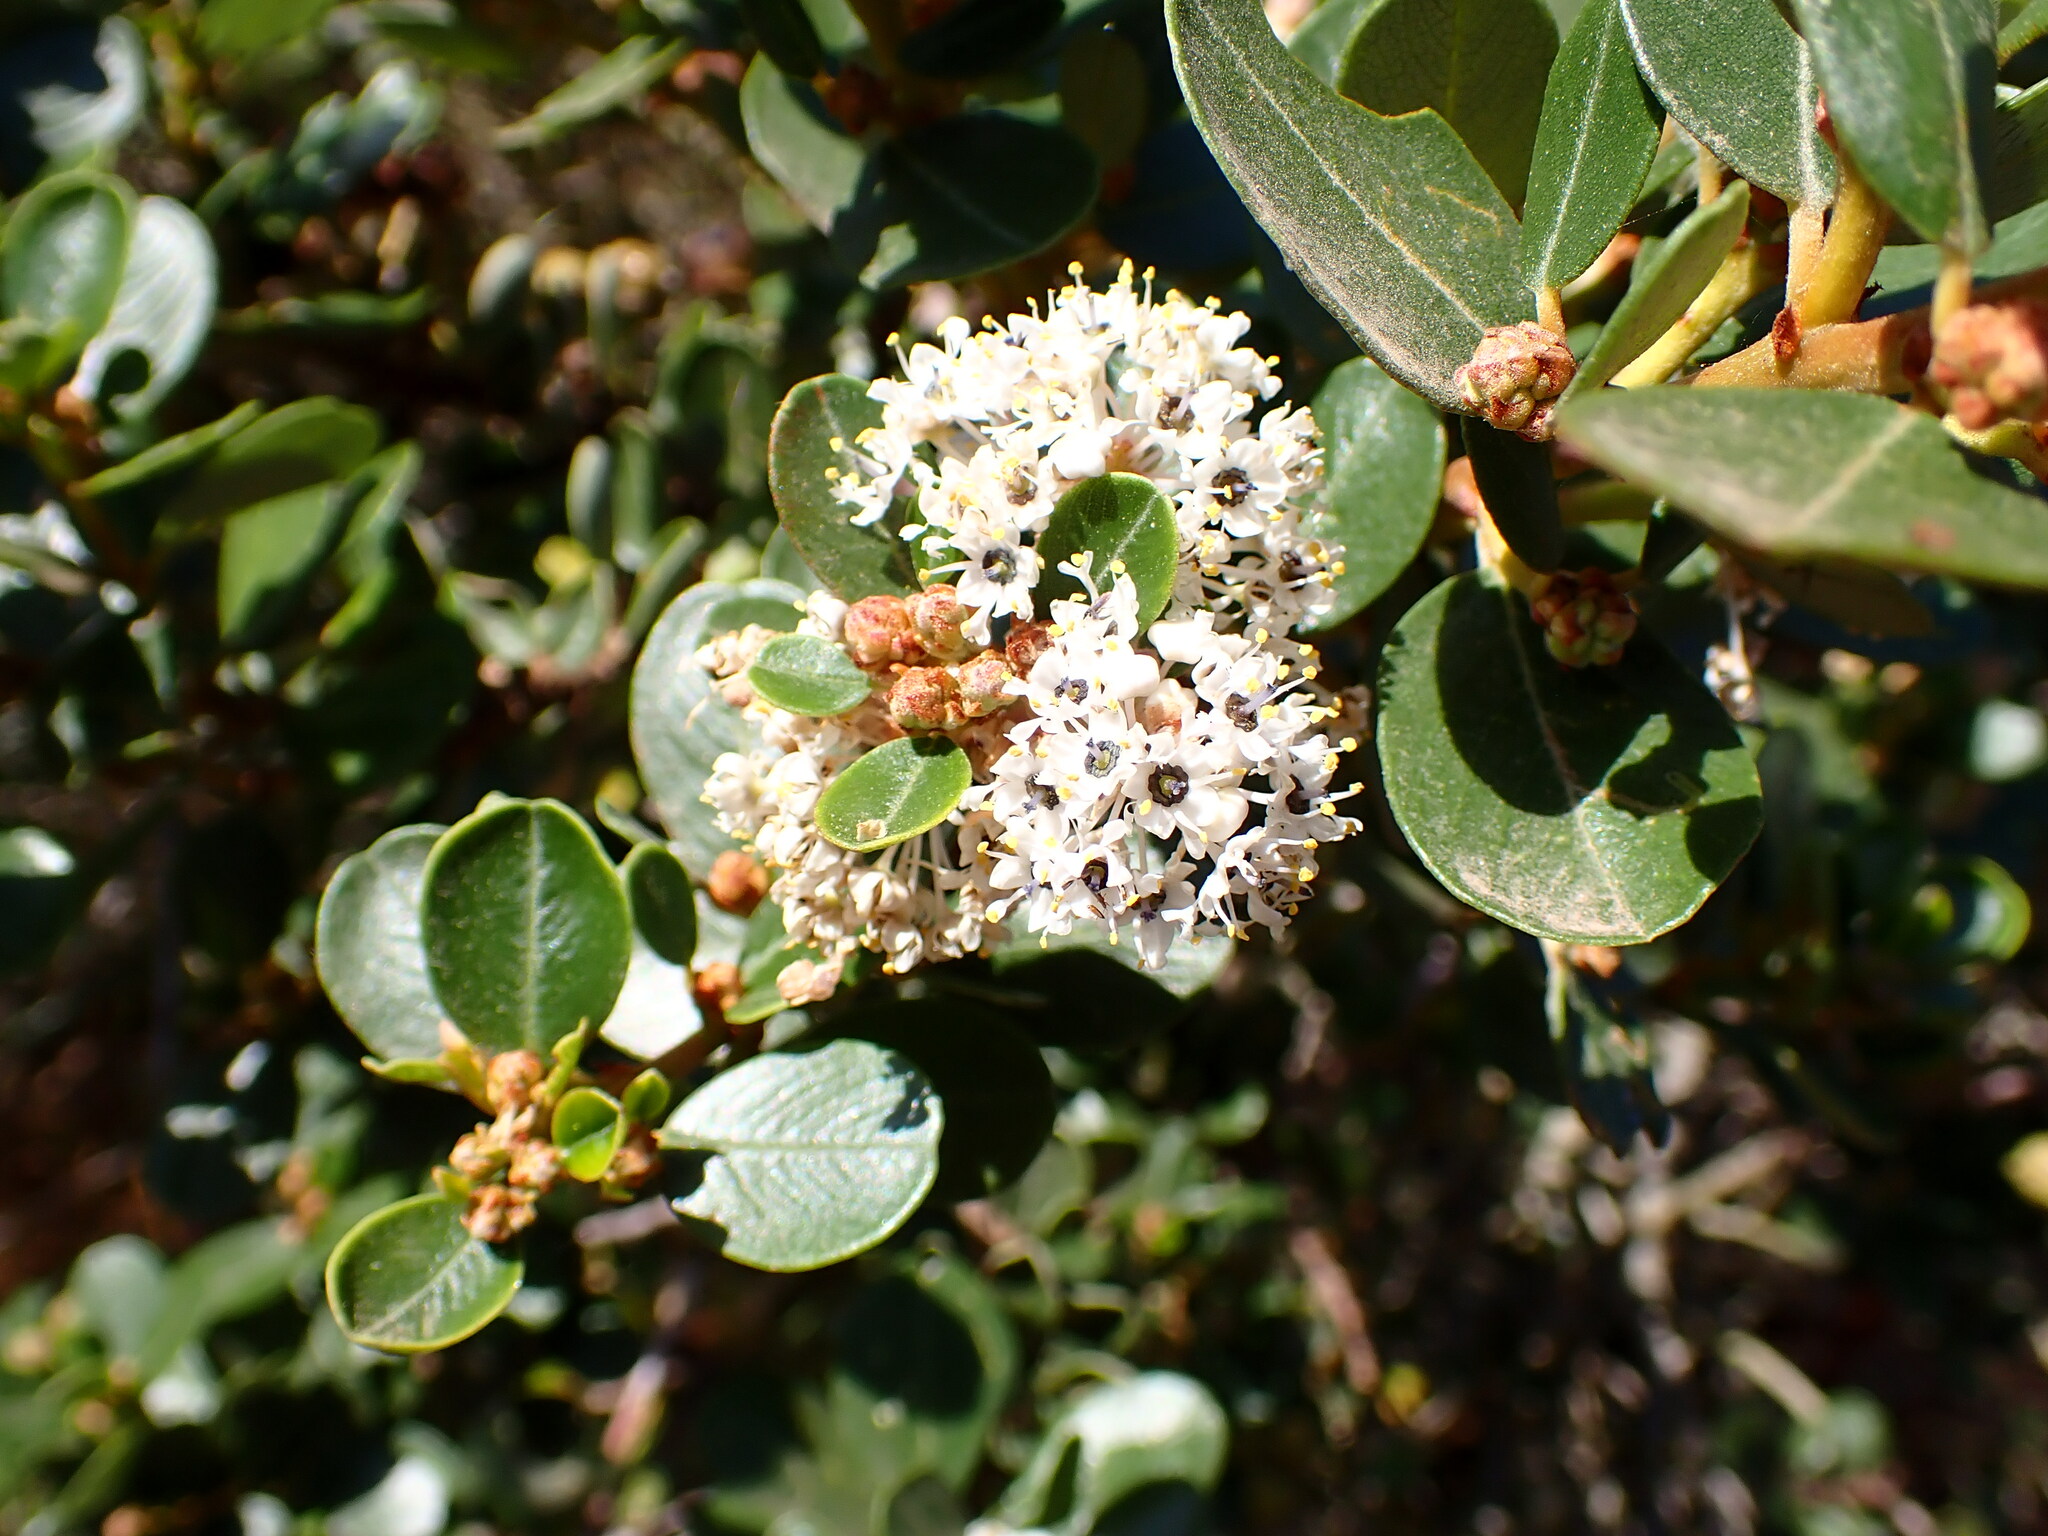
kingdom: Plantae
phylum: Tracheophyta
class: Magnoliopsida
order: Rosales
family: Rhamnaceae
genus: Ceanothus
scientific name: Ceanothus megacarpus
